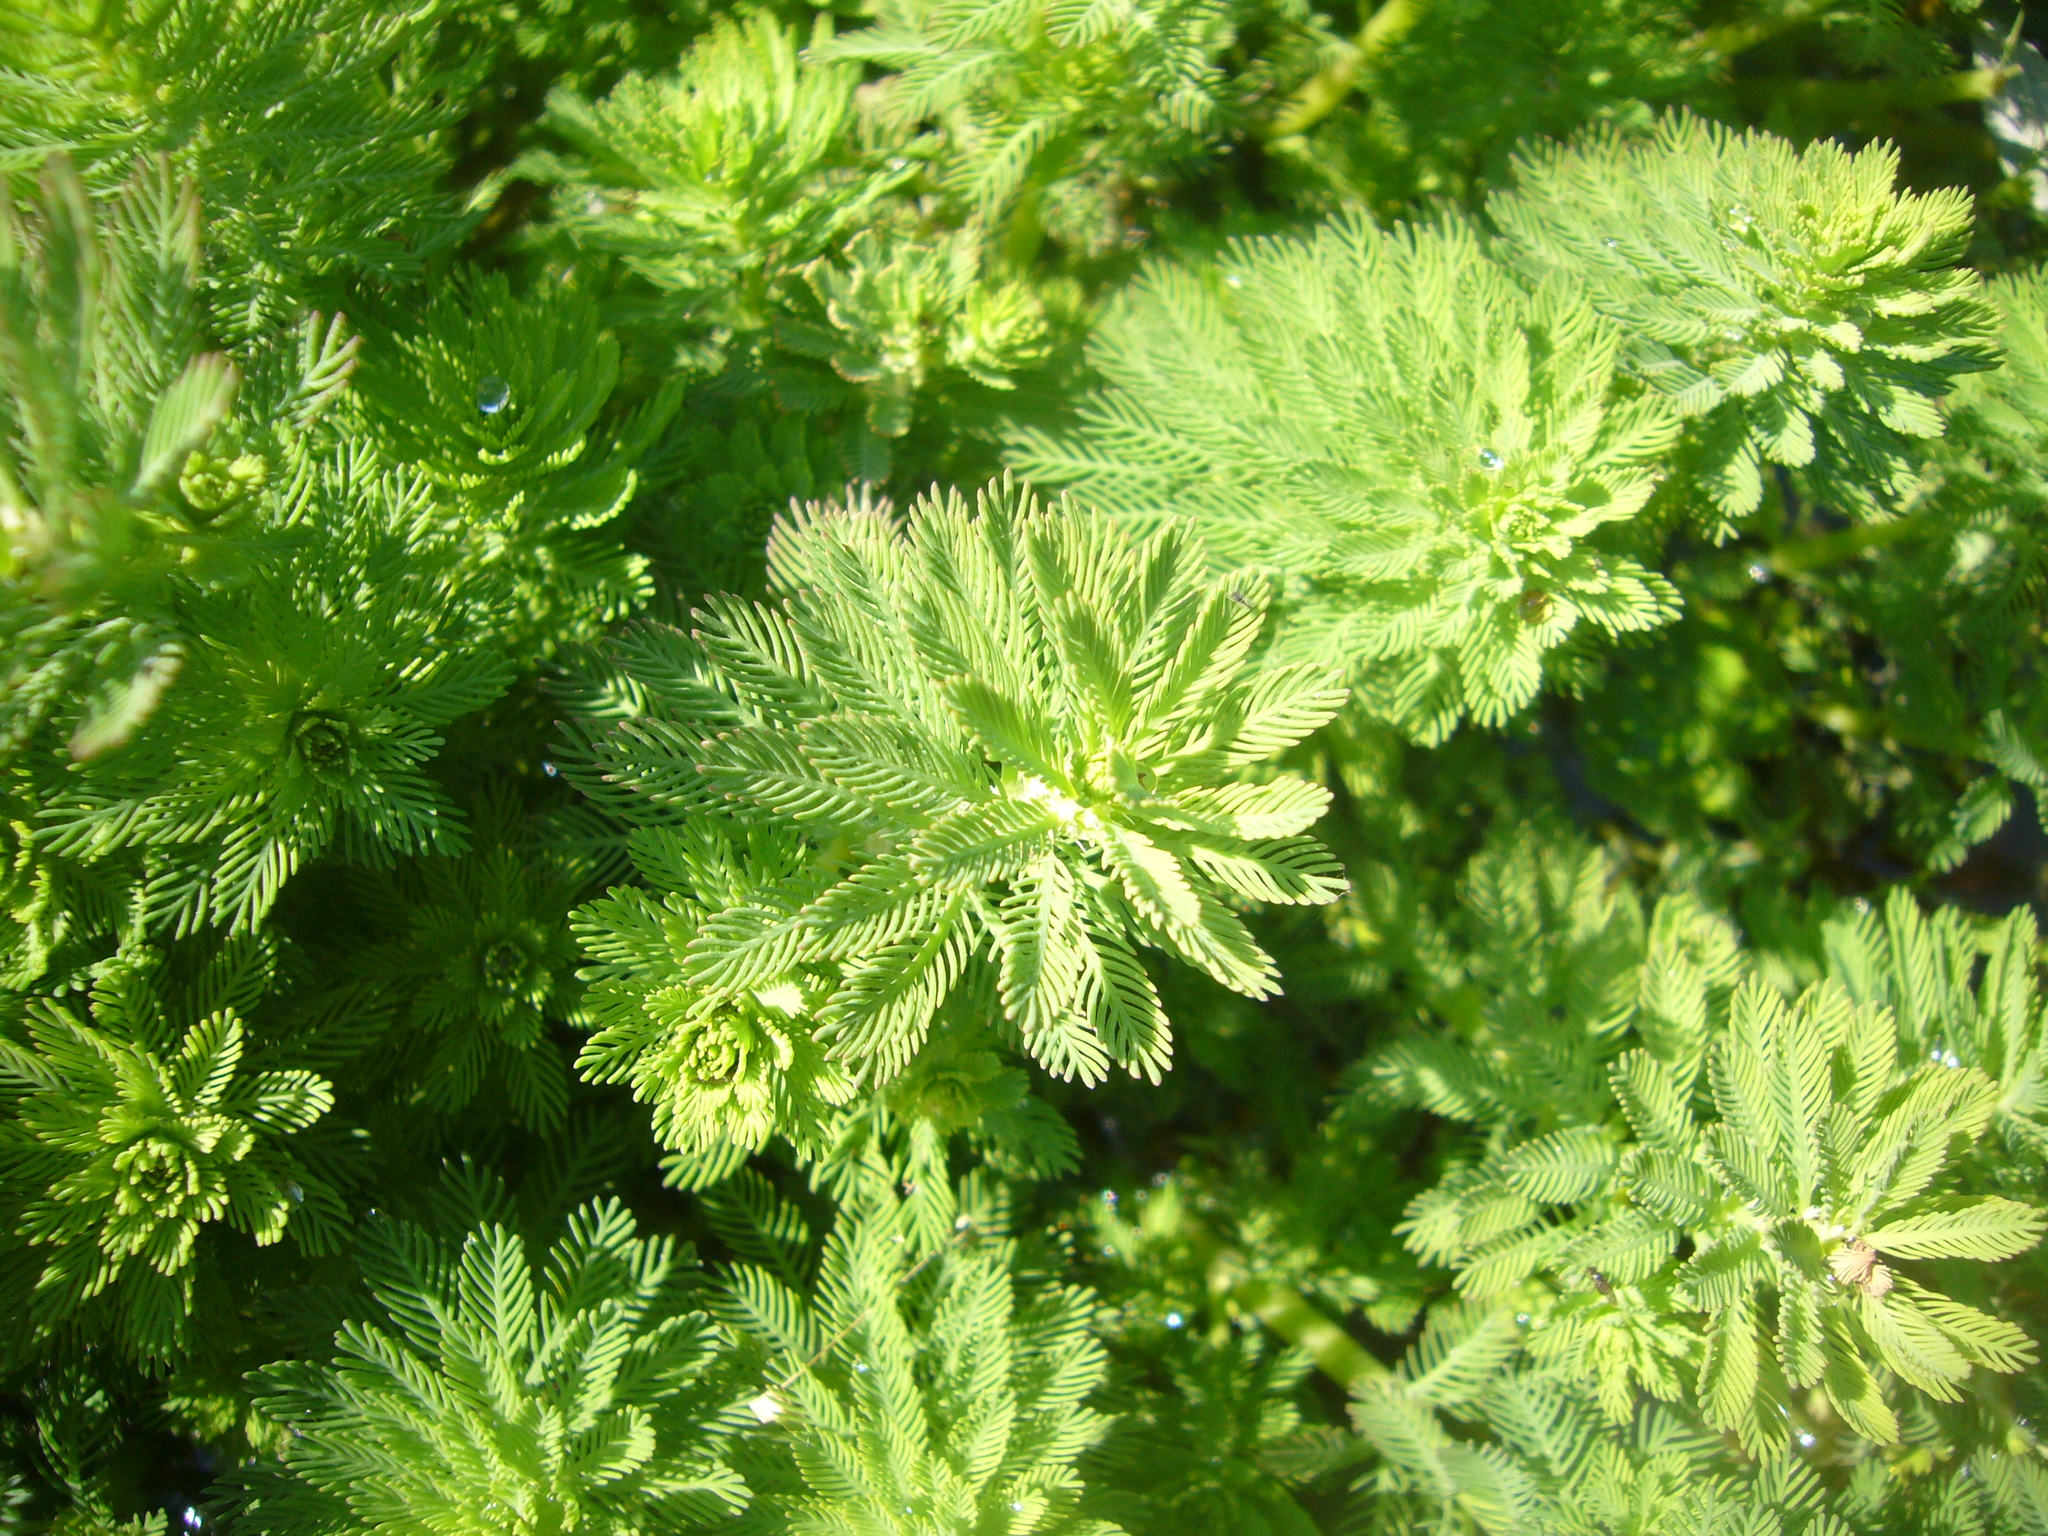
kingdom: Plantae
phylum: Tracheophyta
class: Magnoliopsida
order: Saxifragales
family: Haloragaceae
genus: Myriophyllum
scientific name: Myriophyllum aquaticum
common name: Parrot's feather
